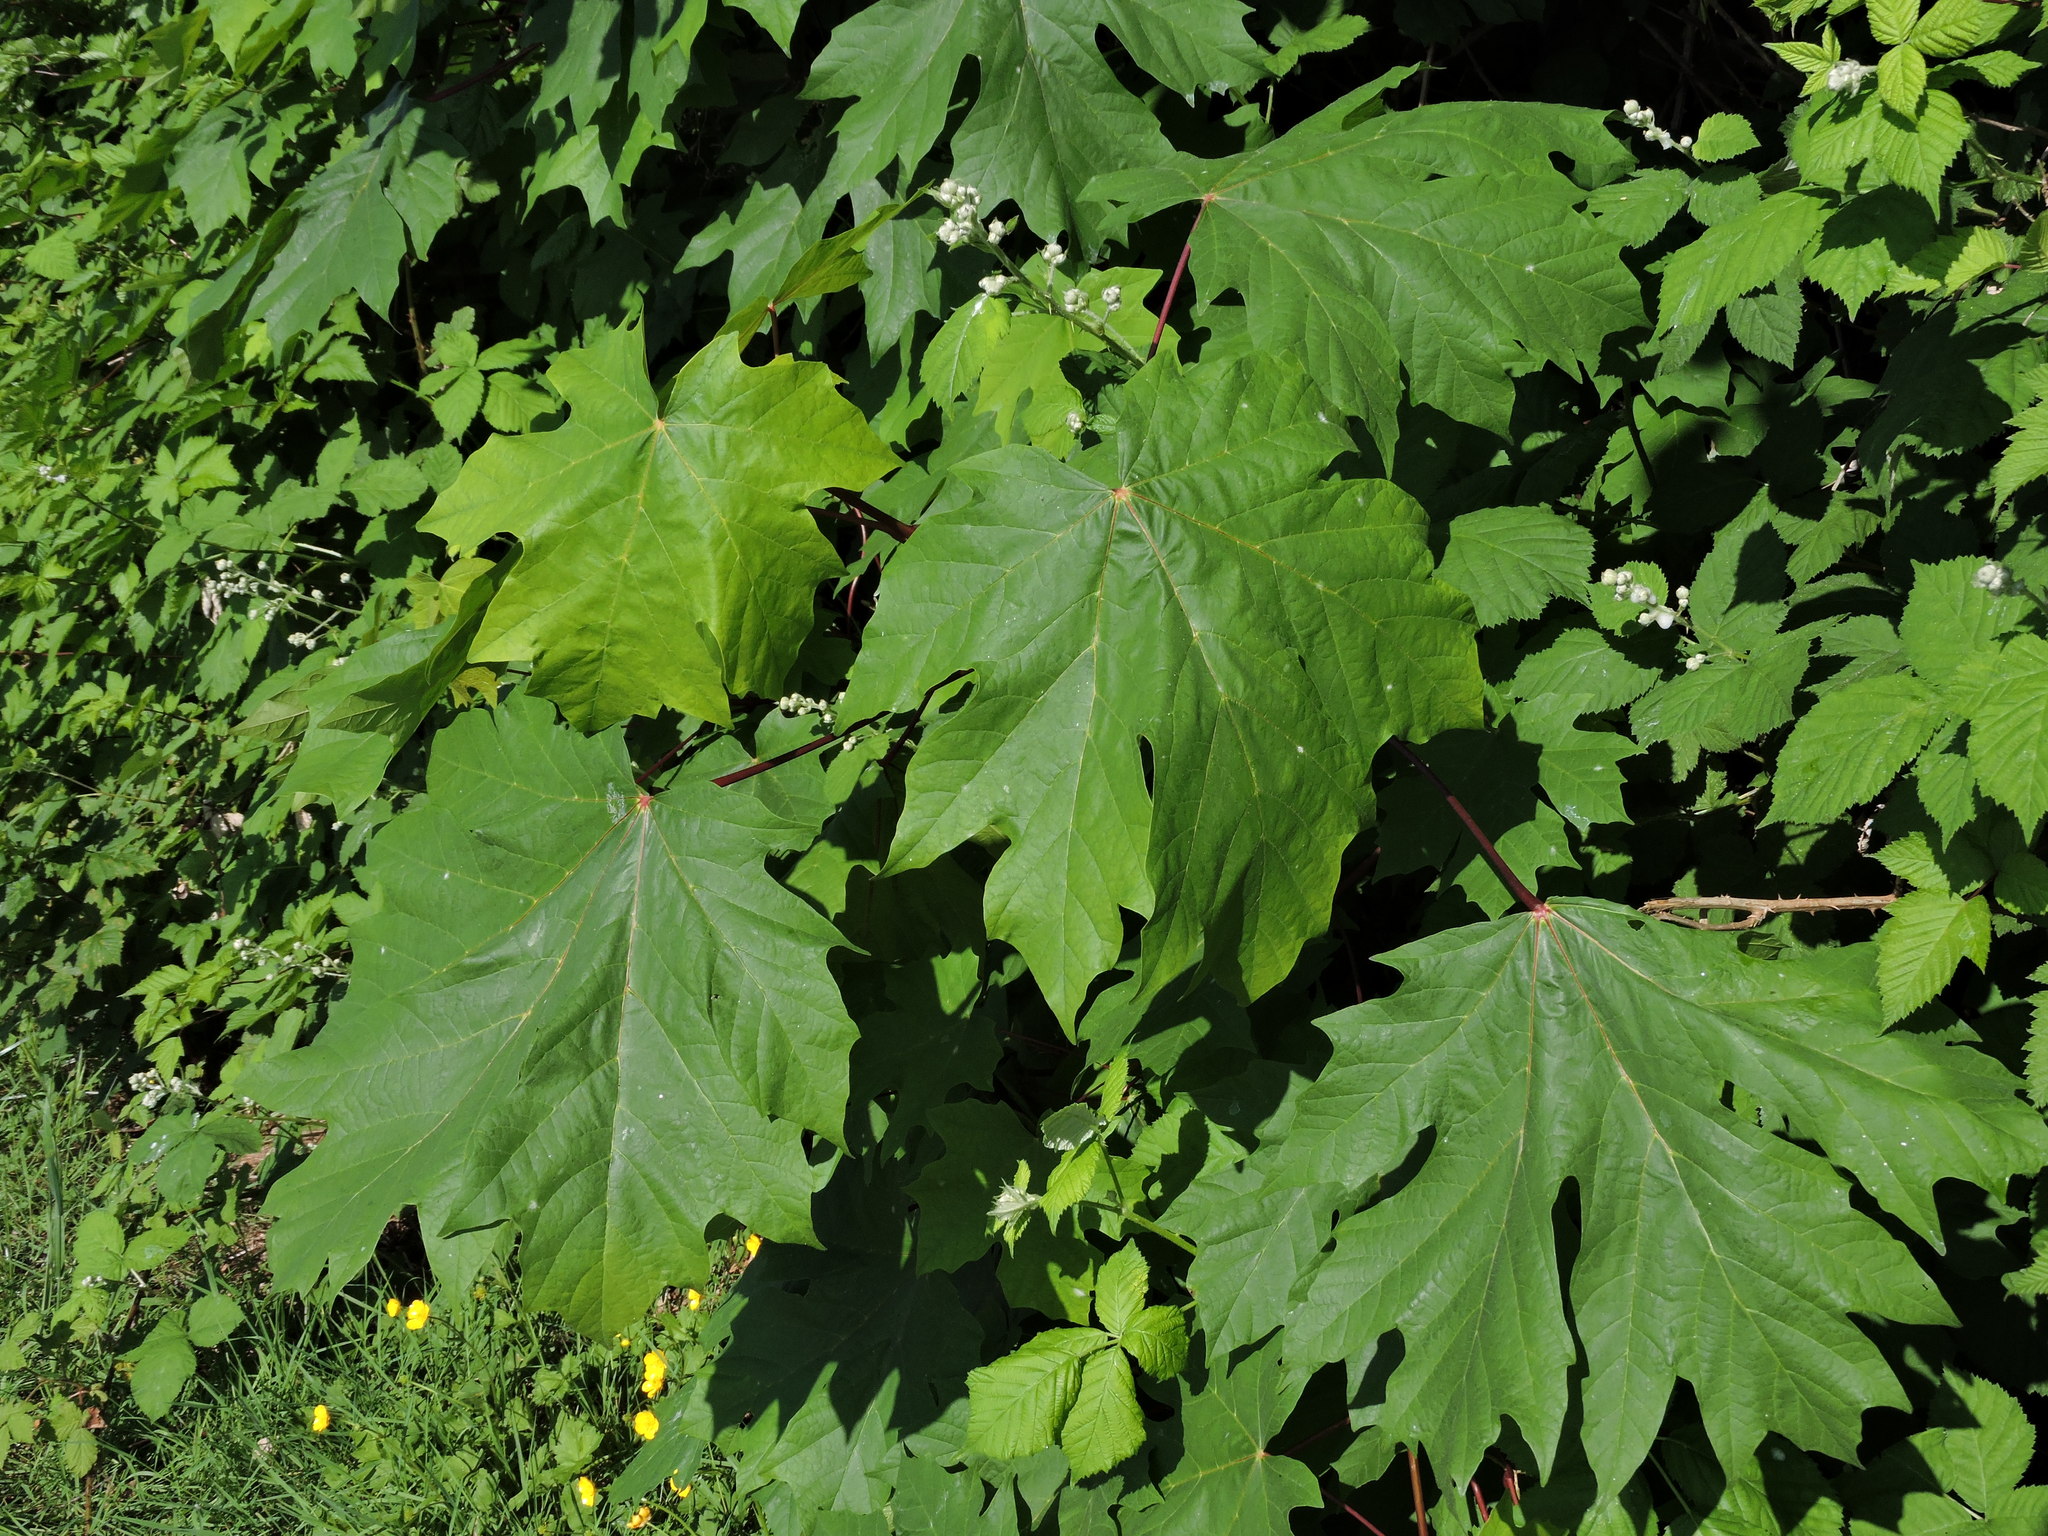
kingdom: Plantae
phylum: Tracheophyta
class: Magnoliopsida
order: Sapindales
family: Sapindaceae
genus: Acer
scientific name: Acer macrophyllum
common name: Oregon maple
